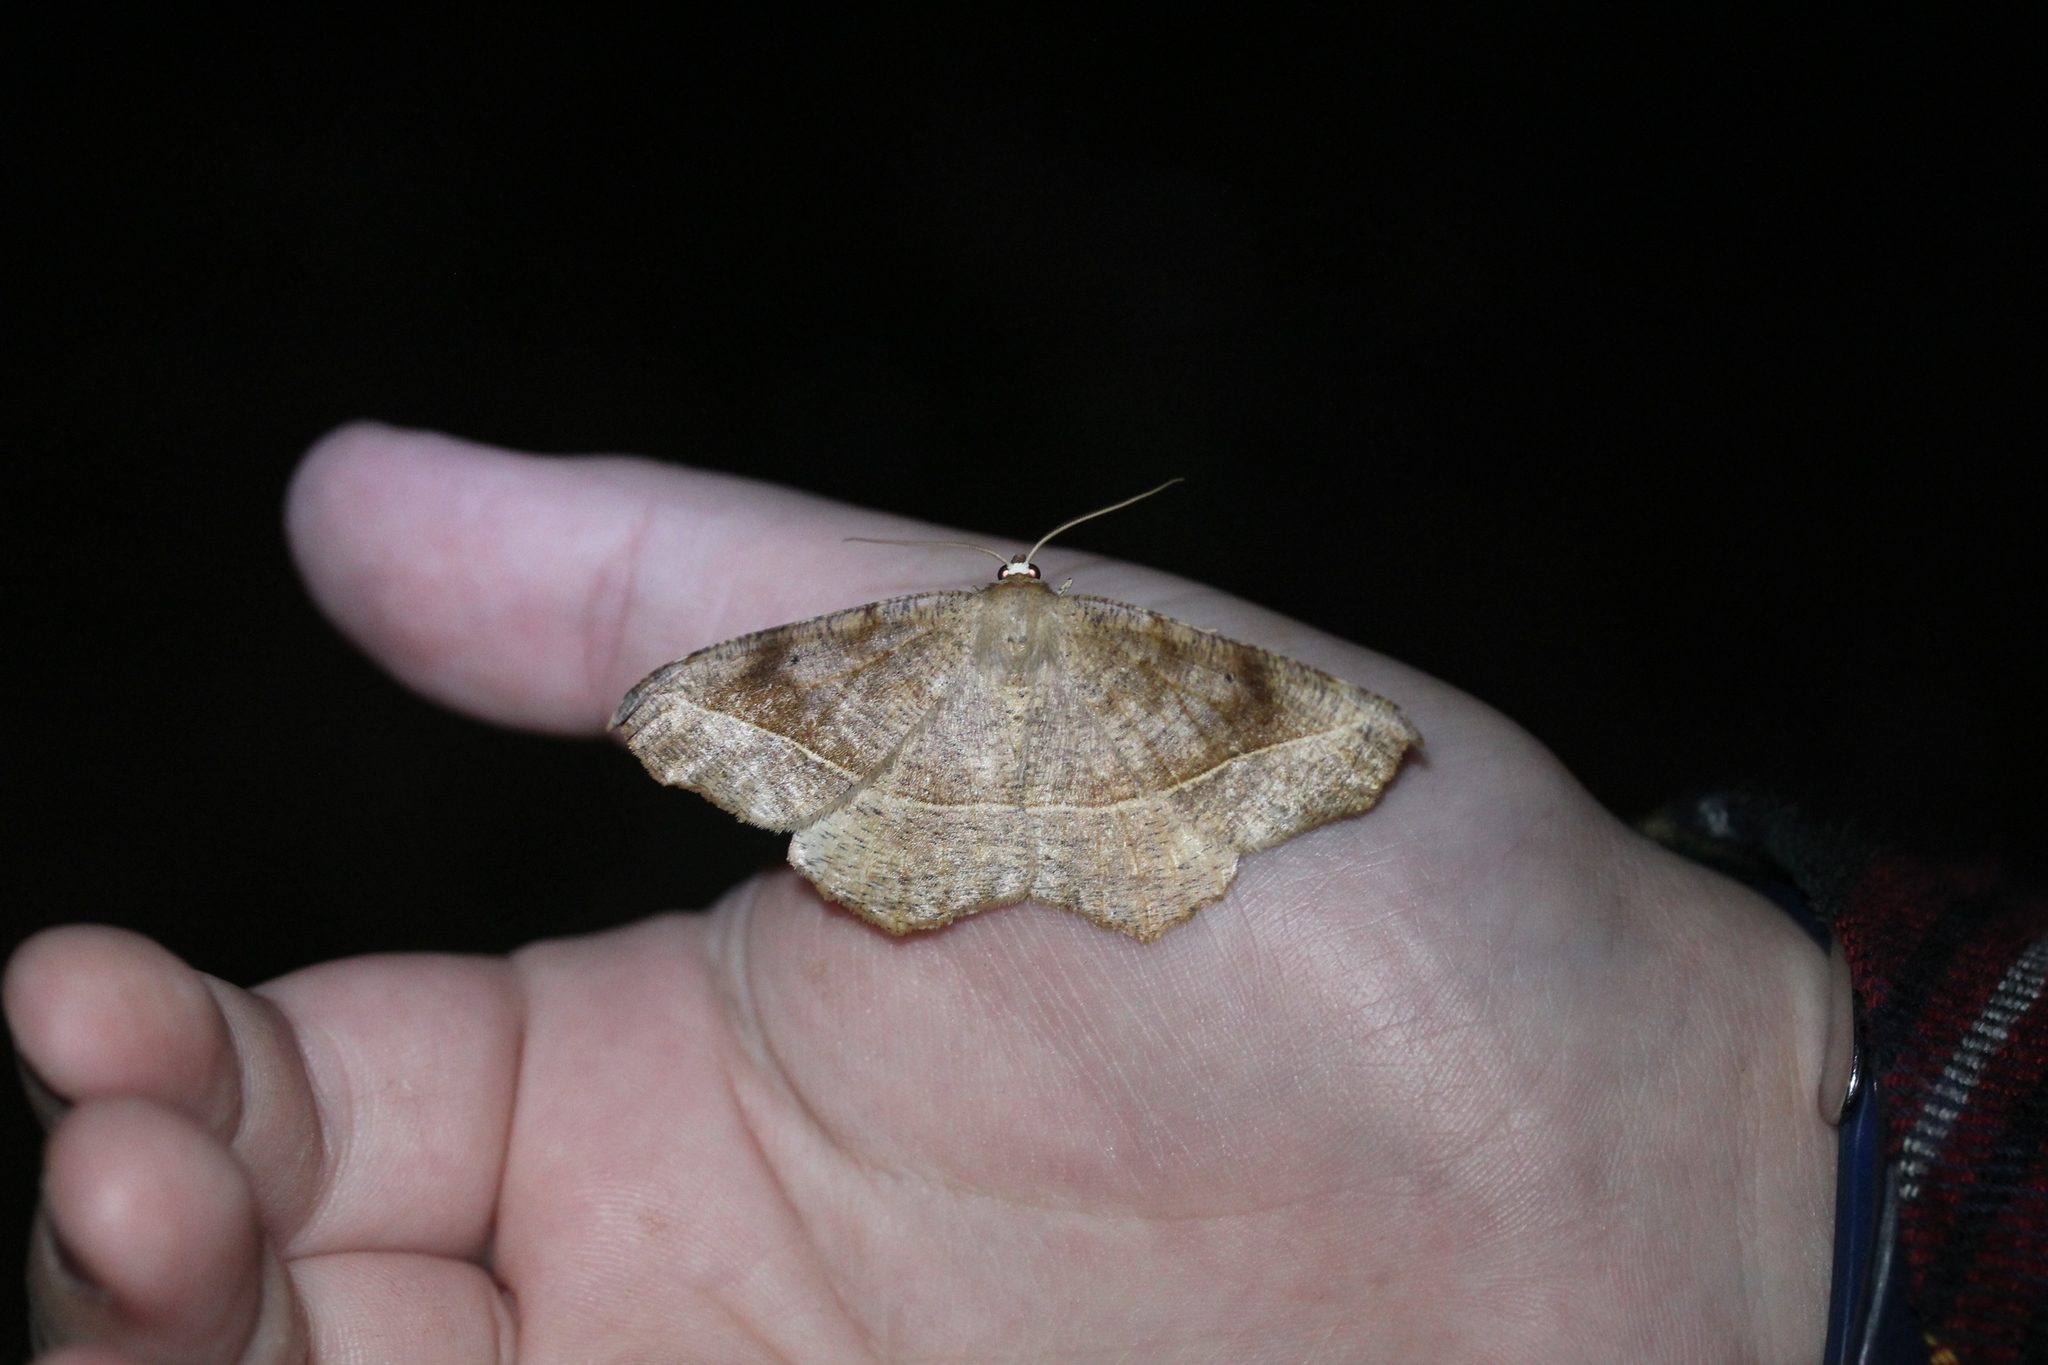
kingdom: Animalia
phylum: Arthropoda
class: Insecta
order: Lepidoptera
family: Geometridae
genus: Eutrapela
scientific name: Eutrapela clemataria
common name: Curved-toothed geometer
